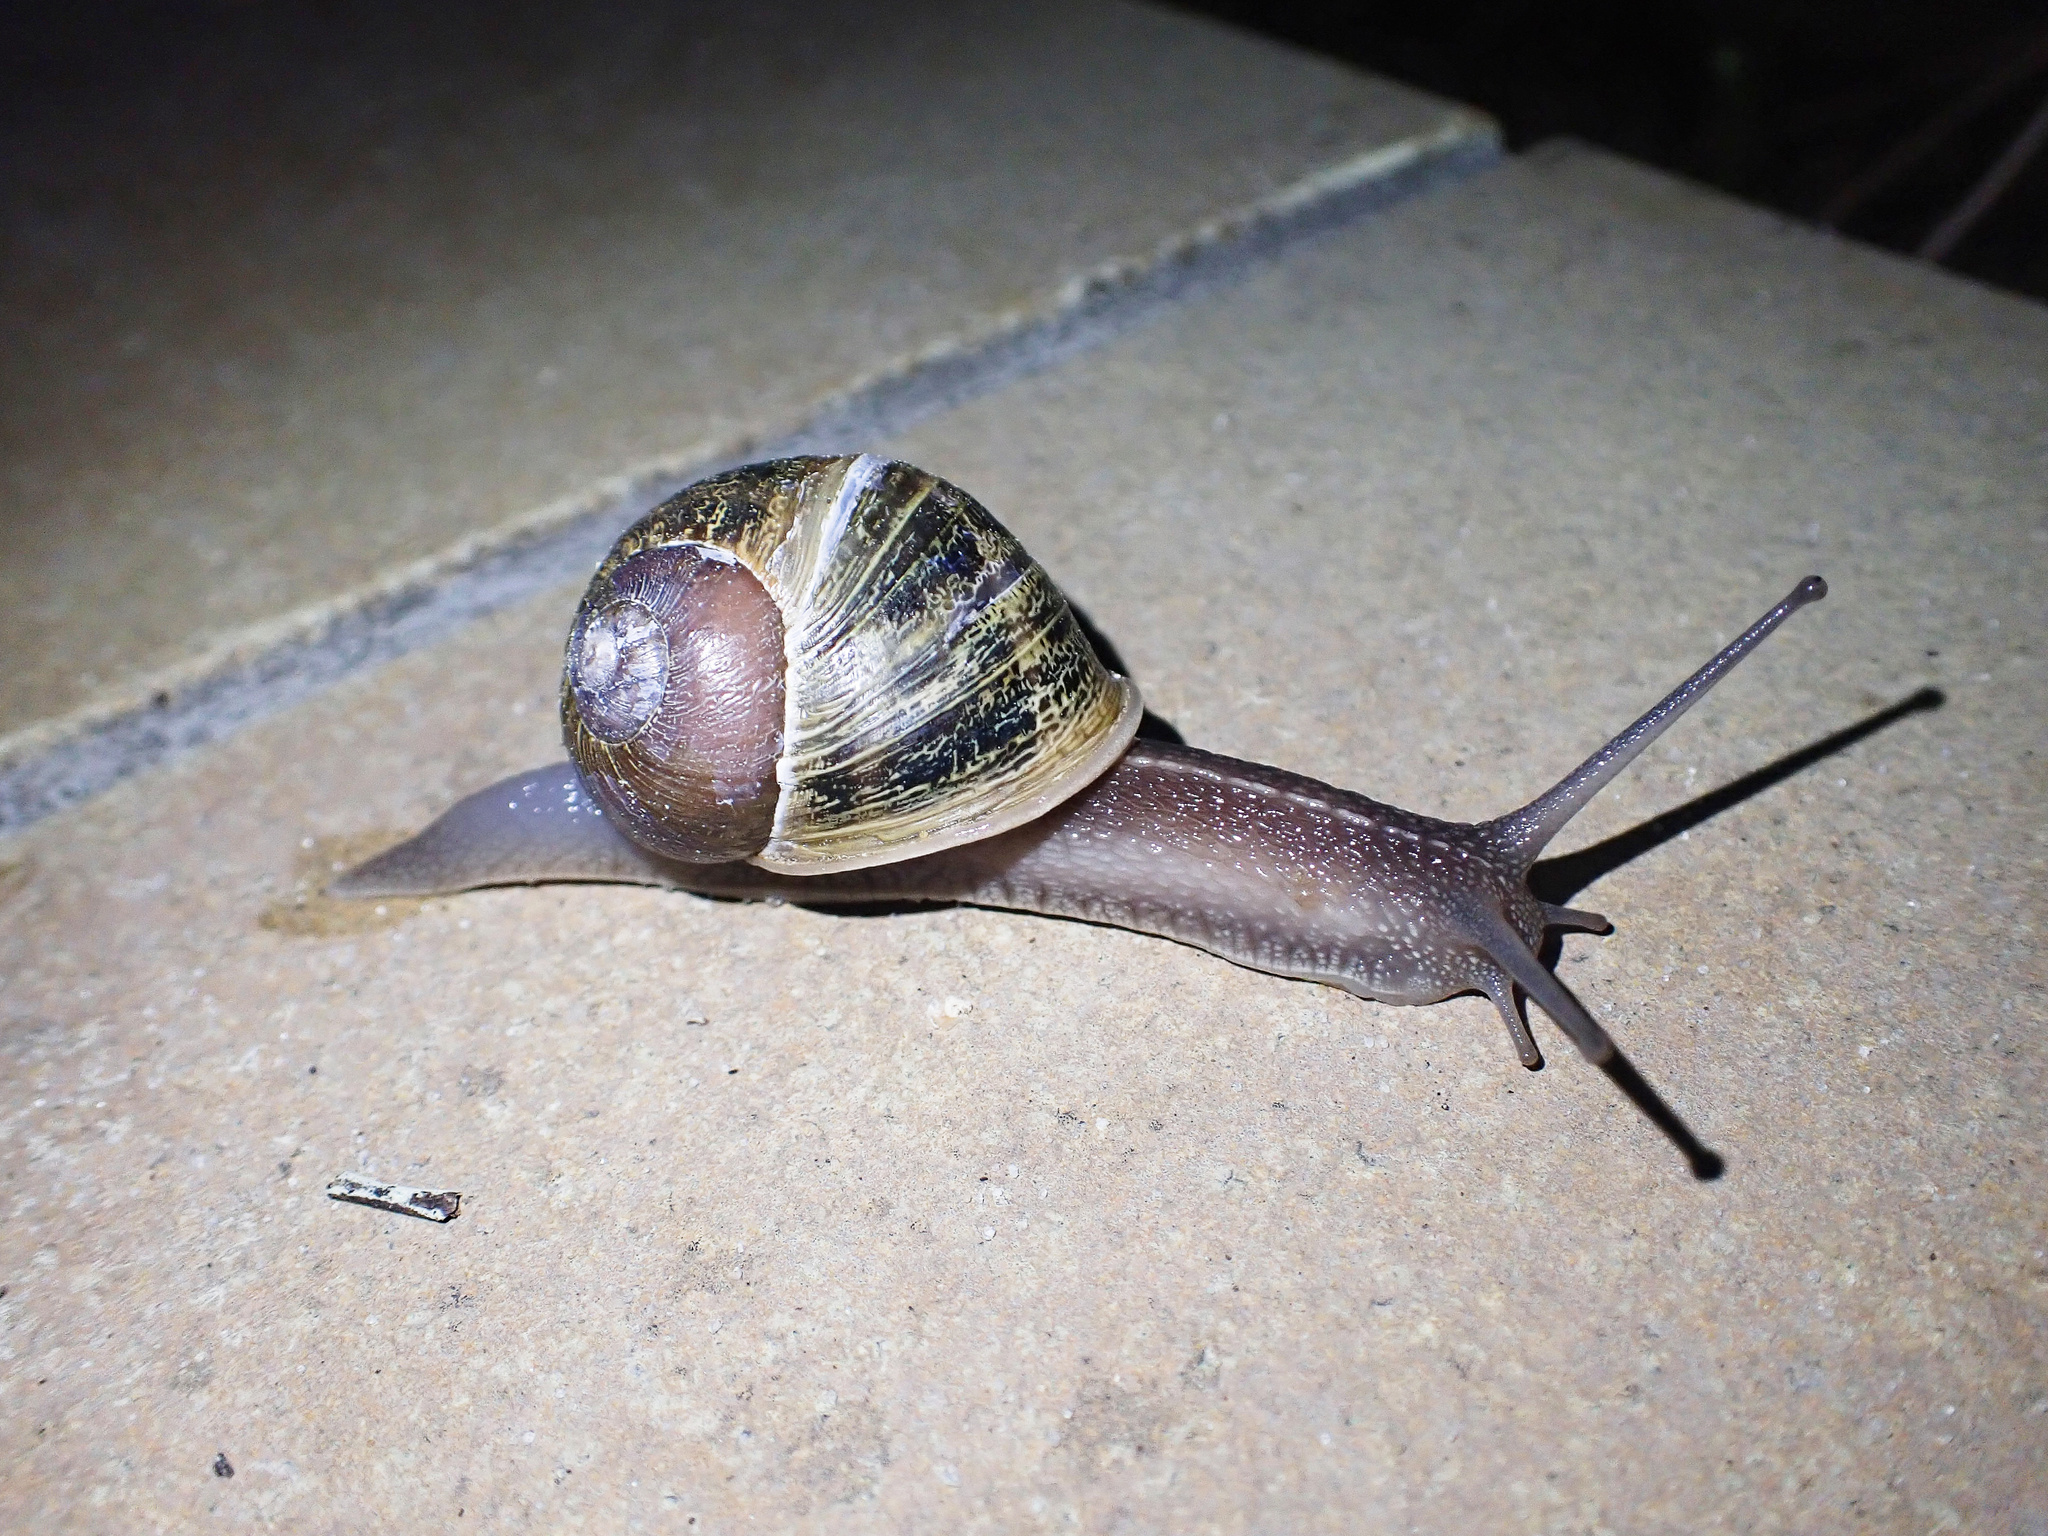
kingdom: Animalia
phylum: Mollusca
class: Gastropoda
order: Stylommatophora
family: Helicidae
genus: Cornu
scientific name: Cornu aspersum
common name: Brown garden snail
